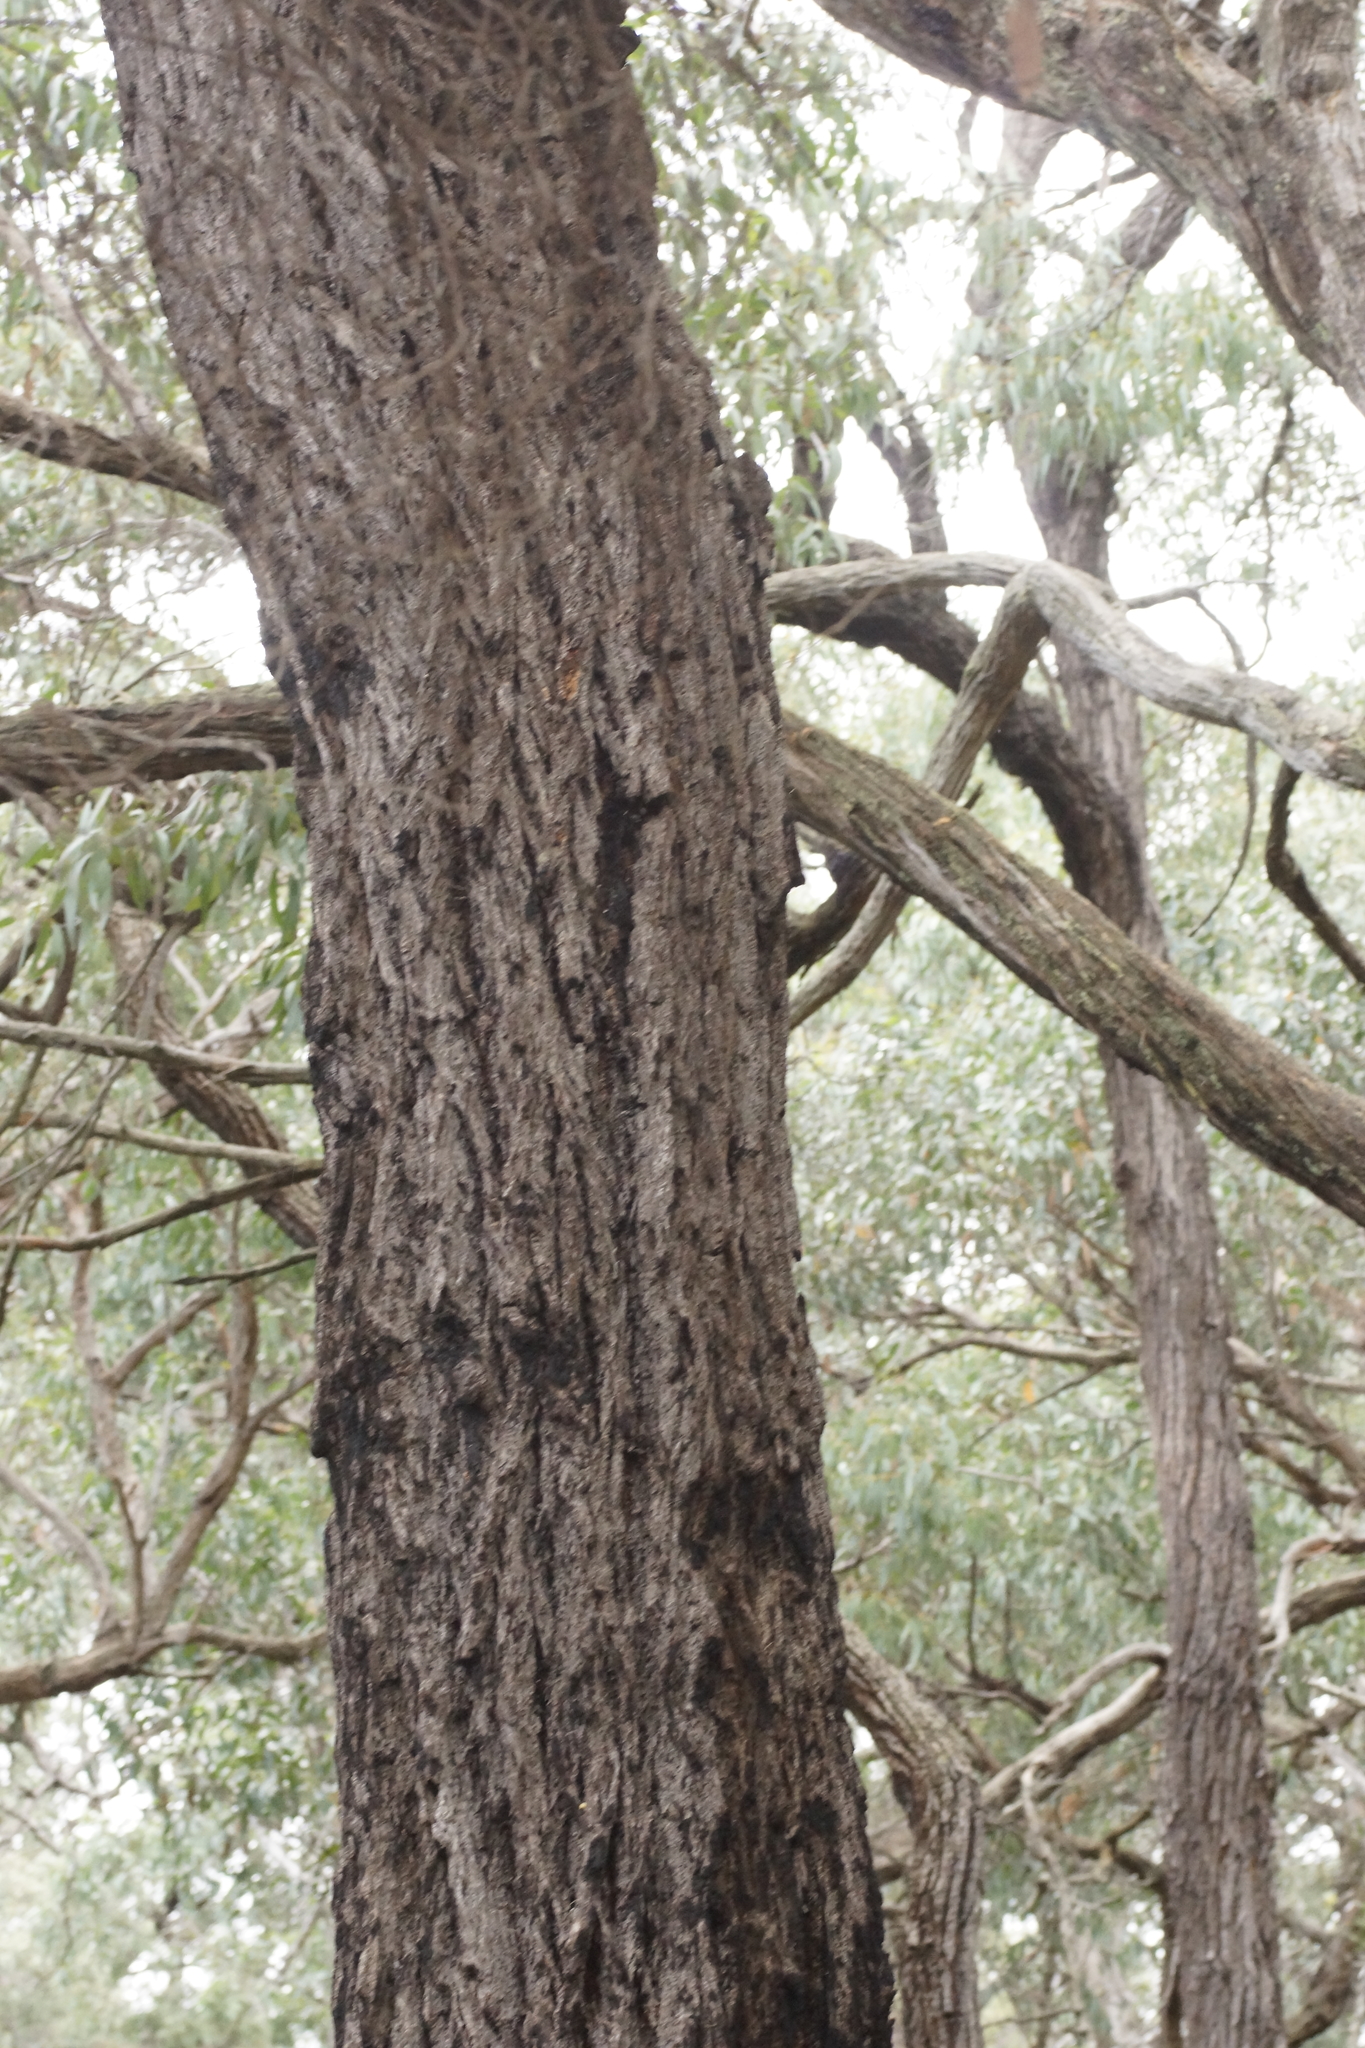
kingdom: Plantae
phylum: Tracheophyta
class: Magnoliopsida
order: Myrtales
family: Myrtaceae
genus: Eucalyptus
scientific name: Eucalyptus tricarpa
